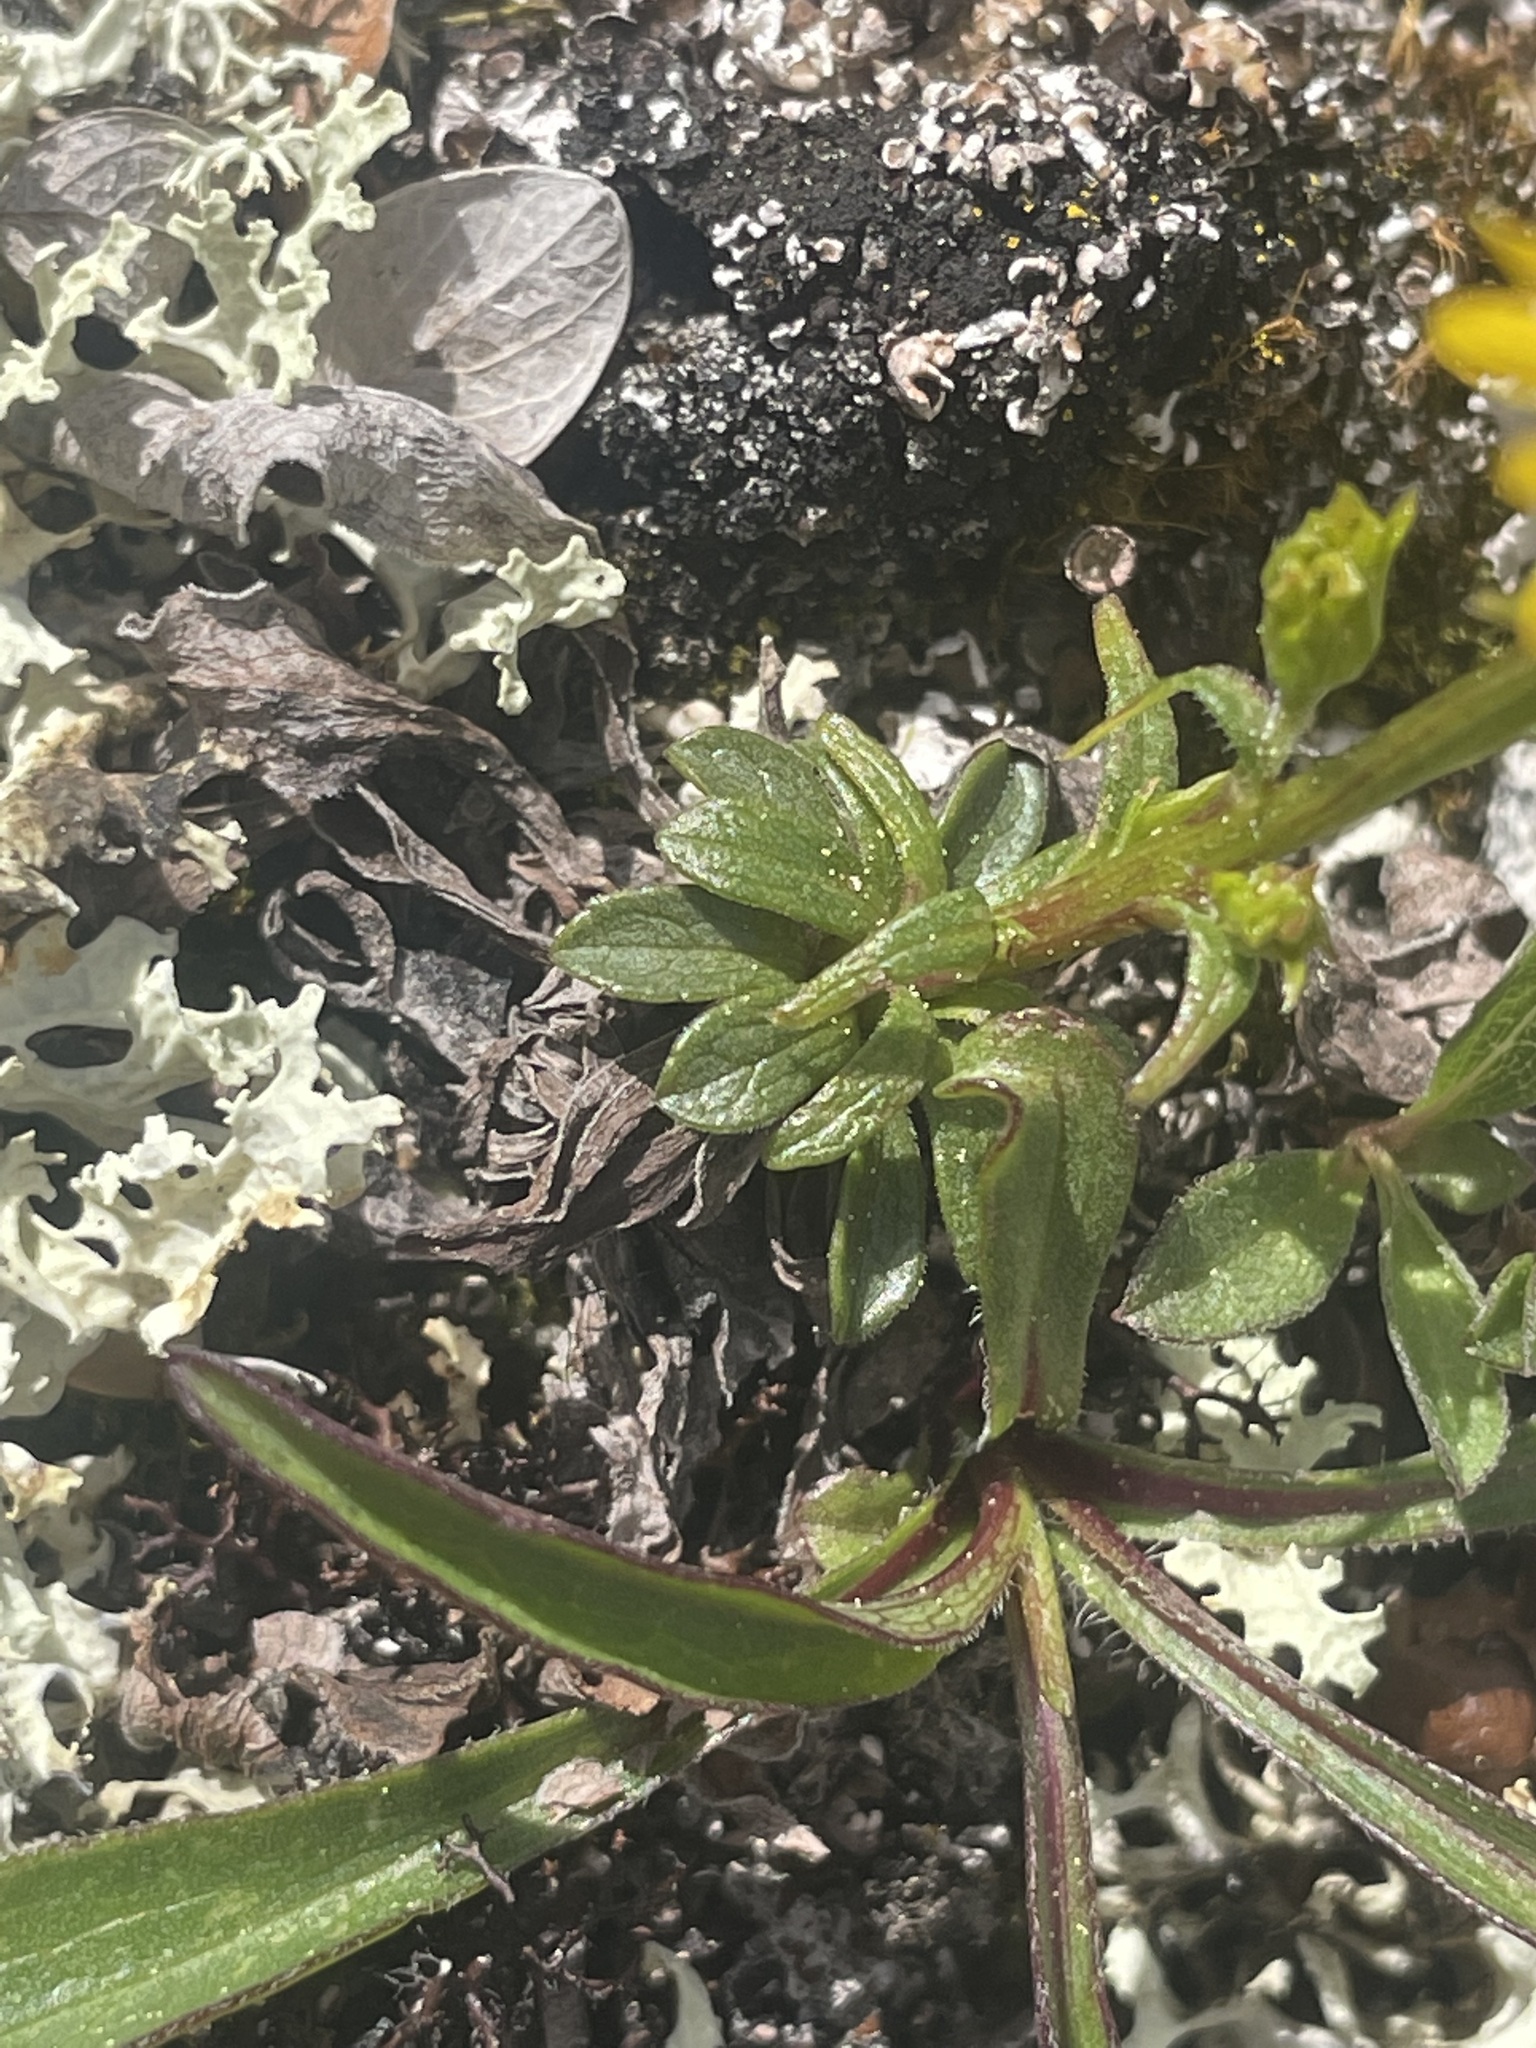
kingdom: Plantae
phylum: Tracheophyta
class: Magnoliopsida
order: Asterales
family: Asteraceae
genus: Solidago
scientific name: Solidago multiradiata
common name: Northern goldenrod
